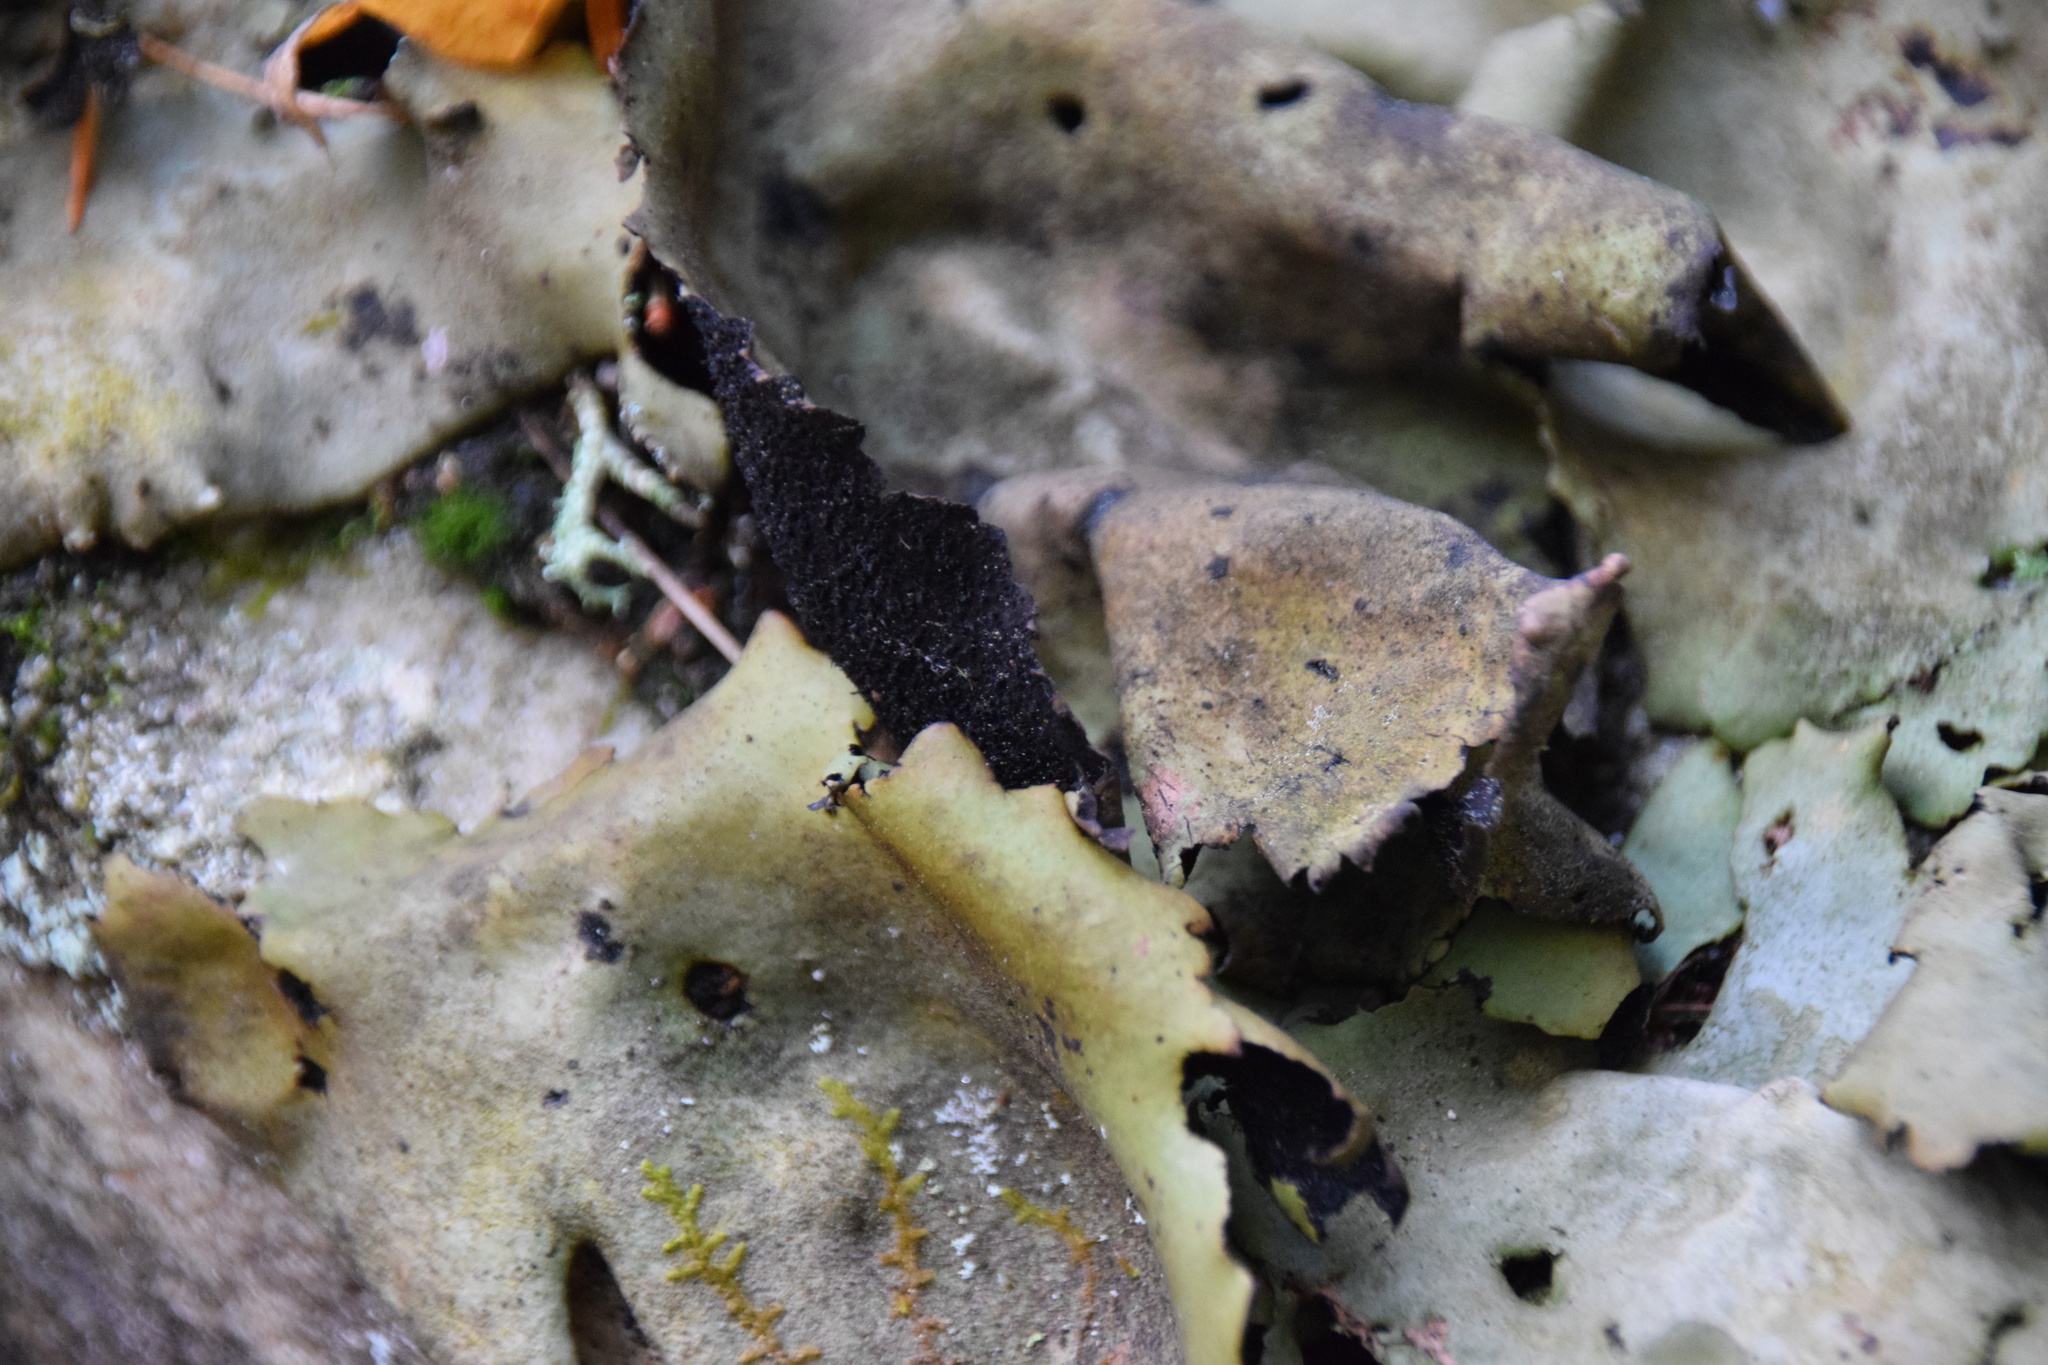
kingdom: Fungi
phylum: Ascomycota
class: Lecanoromycetes
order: Umbilicariales
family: Umbilicariaceae
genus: Umbilicaria
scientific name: Umbilicaria mammulata
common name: Smooth rock tripe
